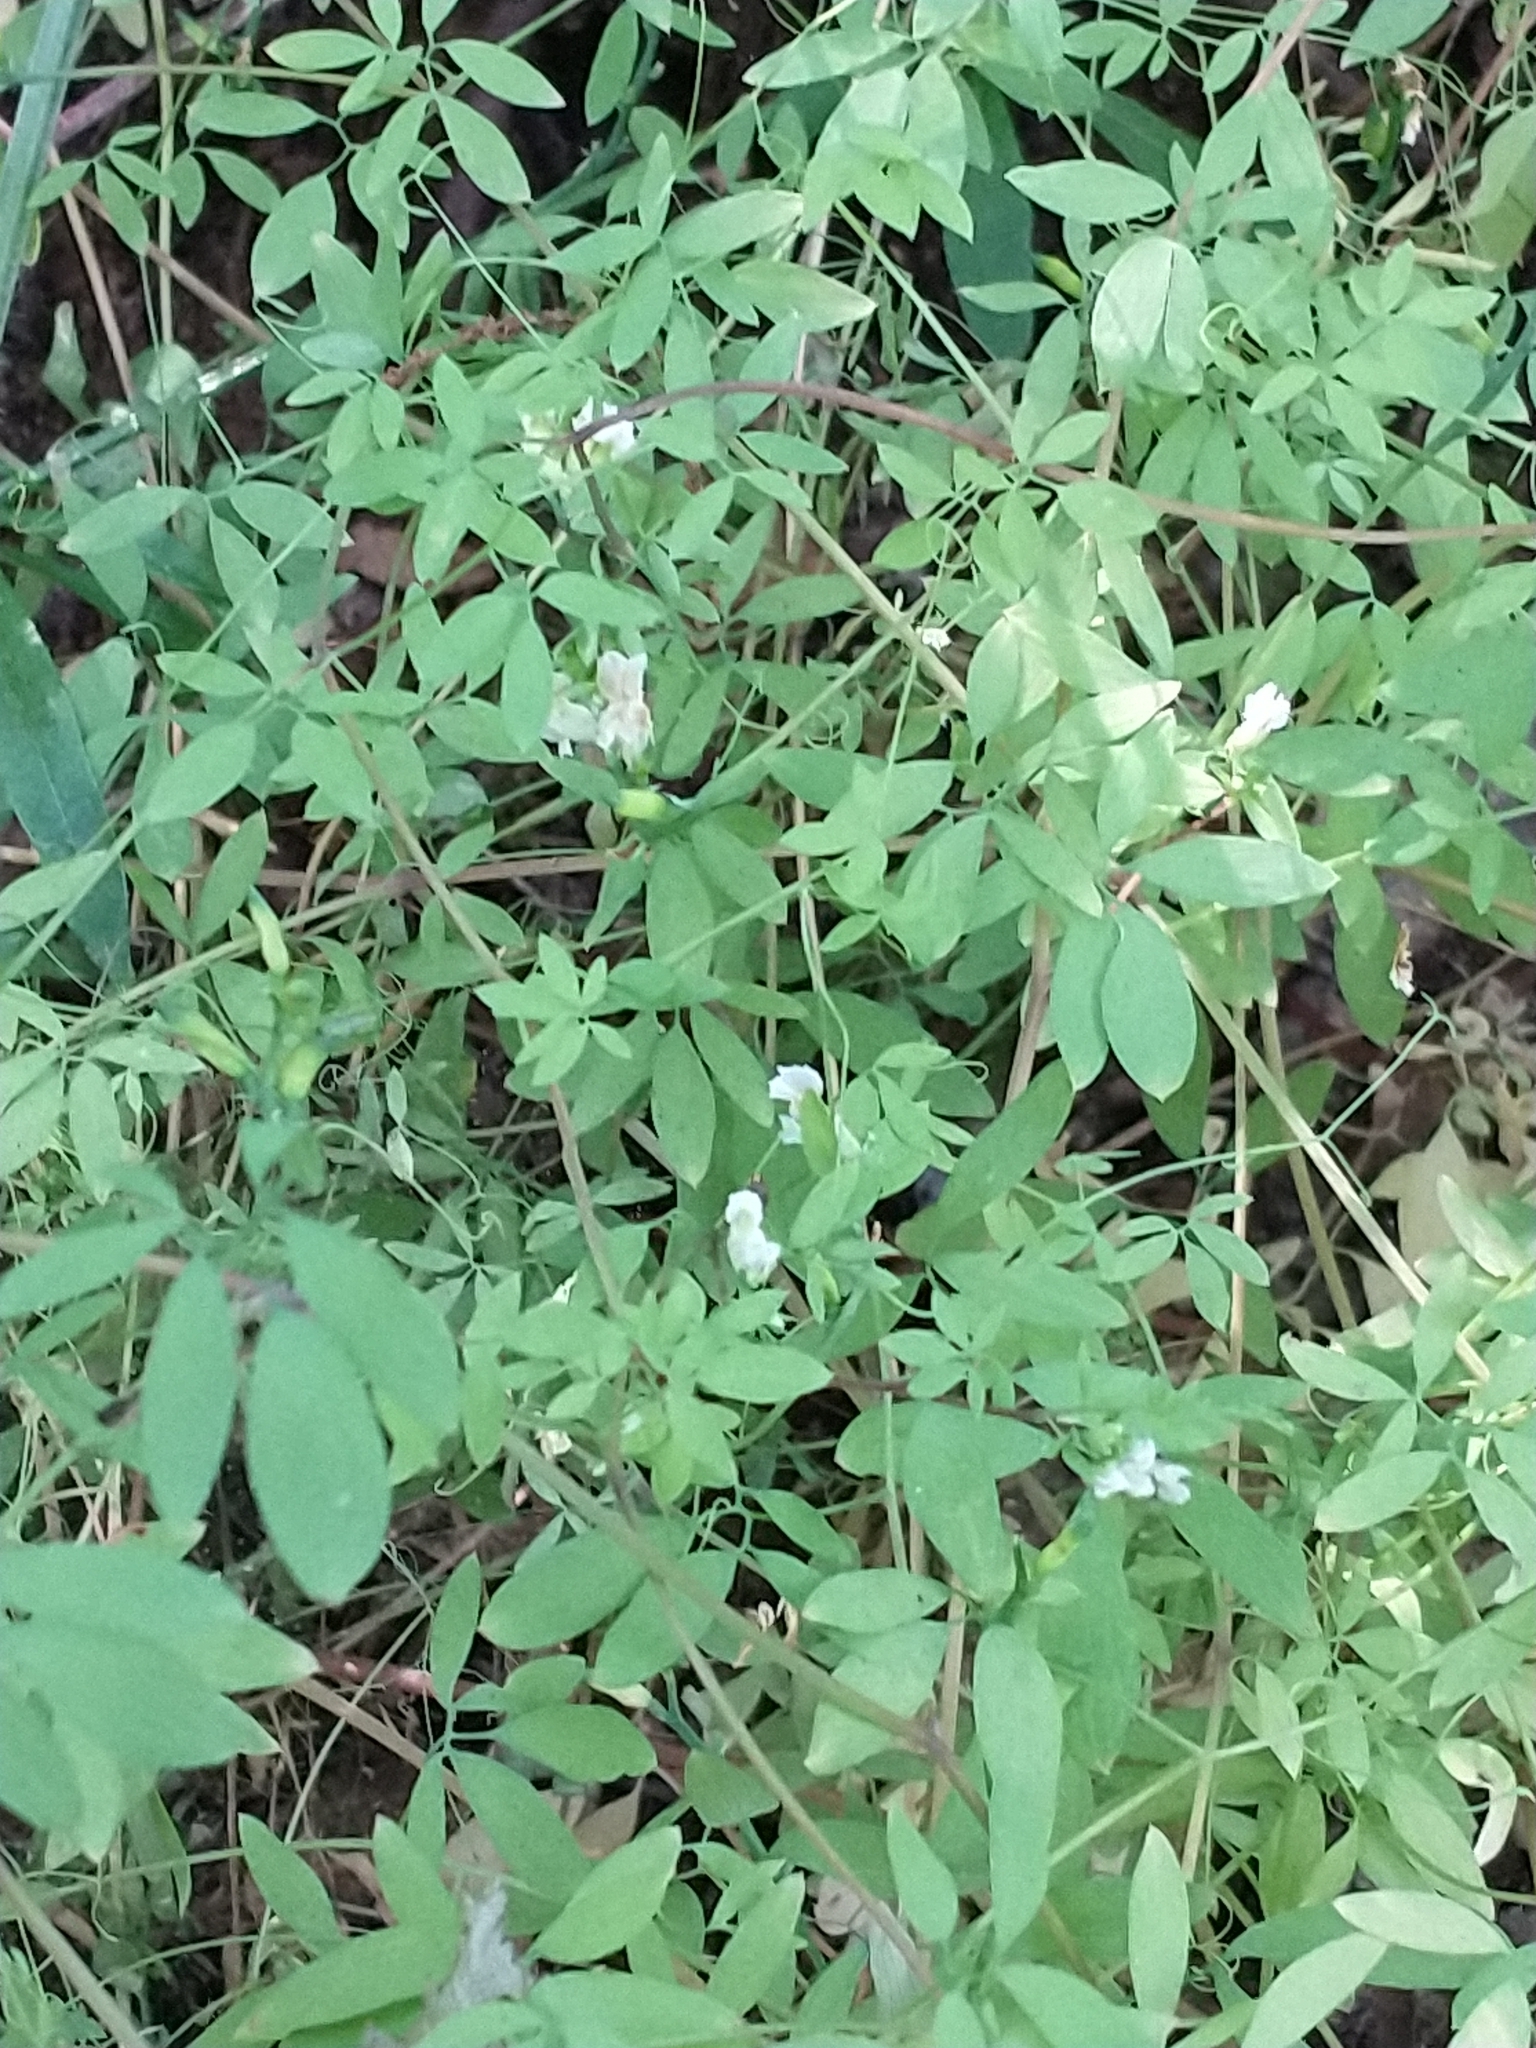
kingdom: Plantae
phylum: Tracheophyta
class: Magnoliopsida
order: Ranunculales
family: Papaveraceae
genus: Ceratocapnos
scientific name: Ceratocapnos claviculata
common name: Climbing corydalis
